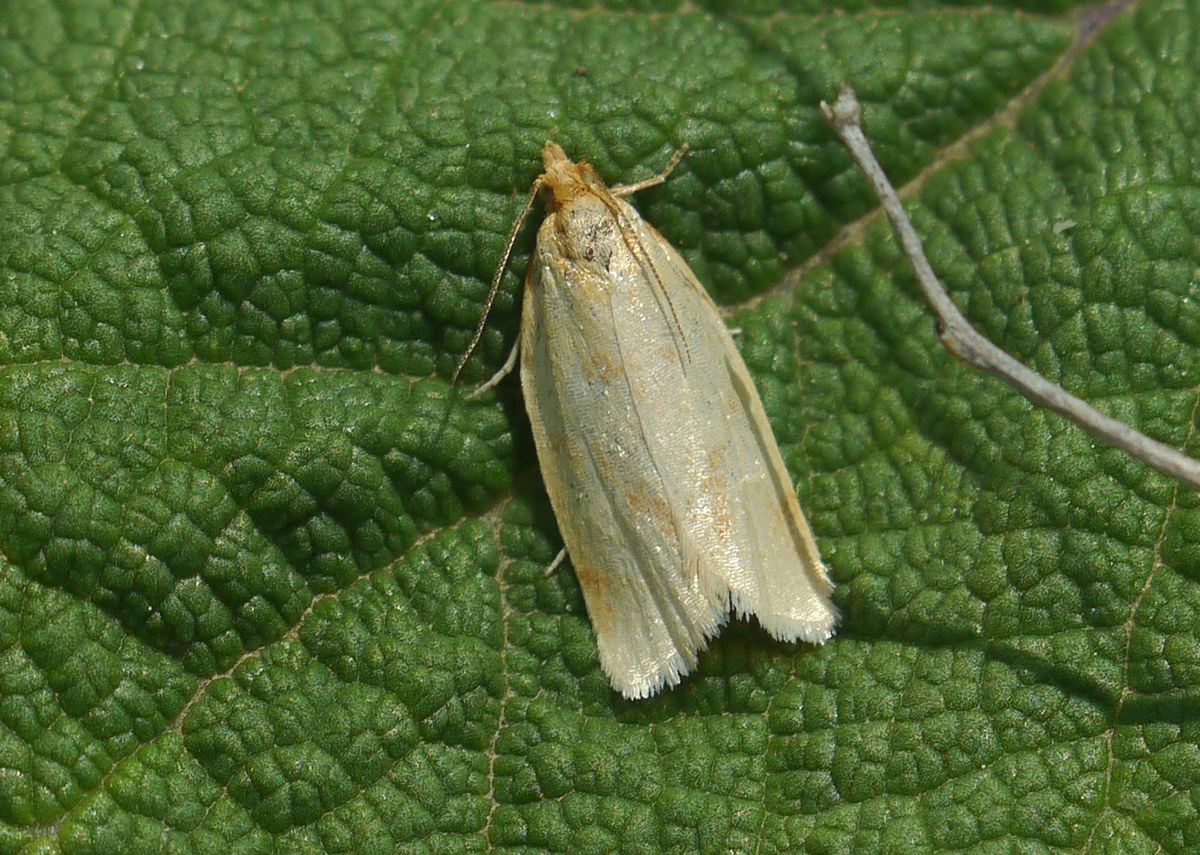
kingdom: Animalia
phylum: Arthropoda
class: Insecta
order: Lepidoptera
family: Tortricidae
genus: Clepsis
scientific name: Clepsis pallidana
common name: Sheep's-bit conch
